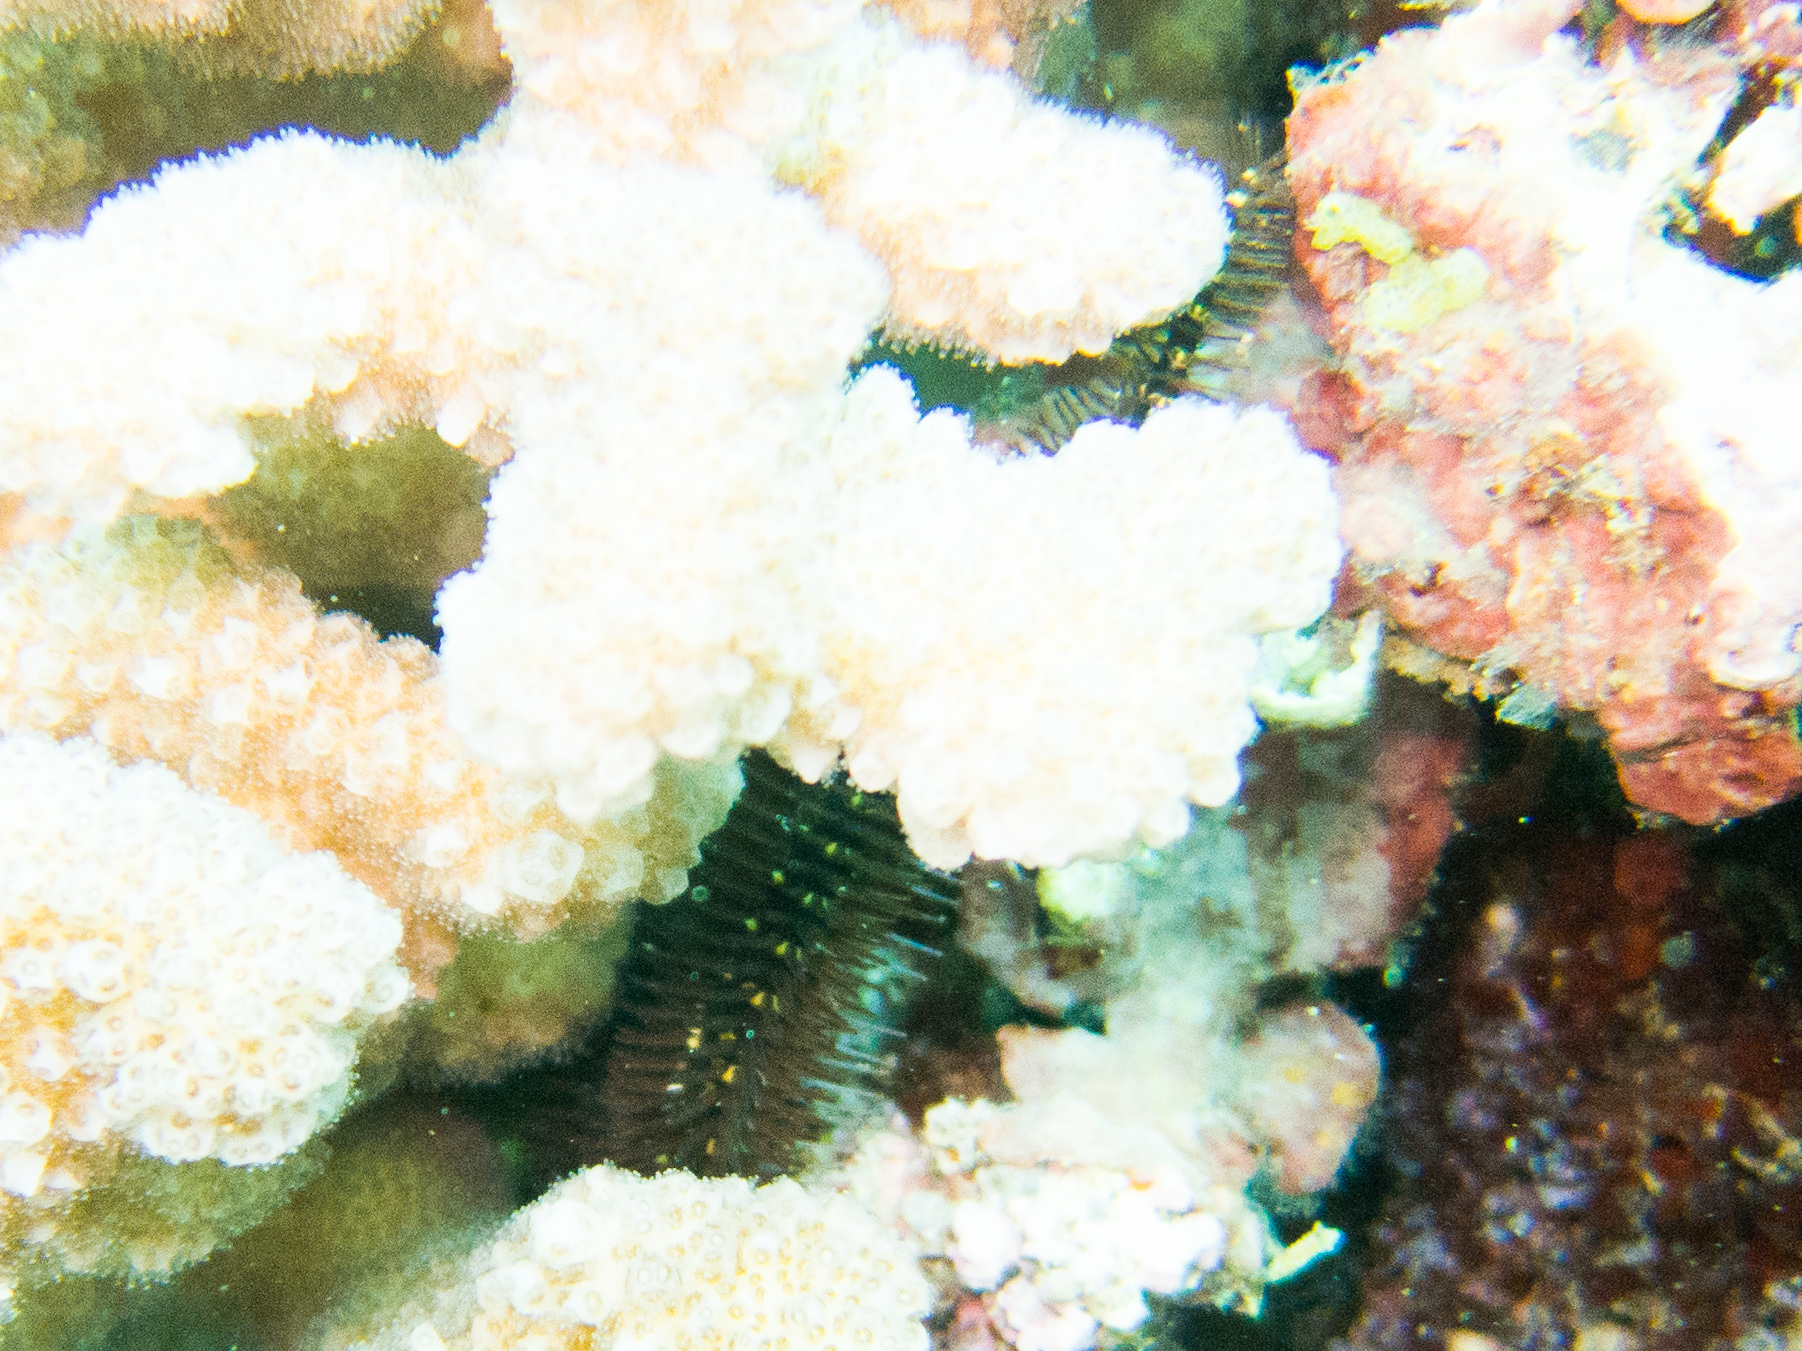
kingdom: Animalia
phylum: Echinodermata
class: Ophiuroidea
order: Ophiacanthida
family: Ophiocomidae
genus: Breviturma
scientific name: Breviturma pica
